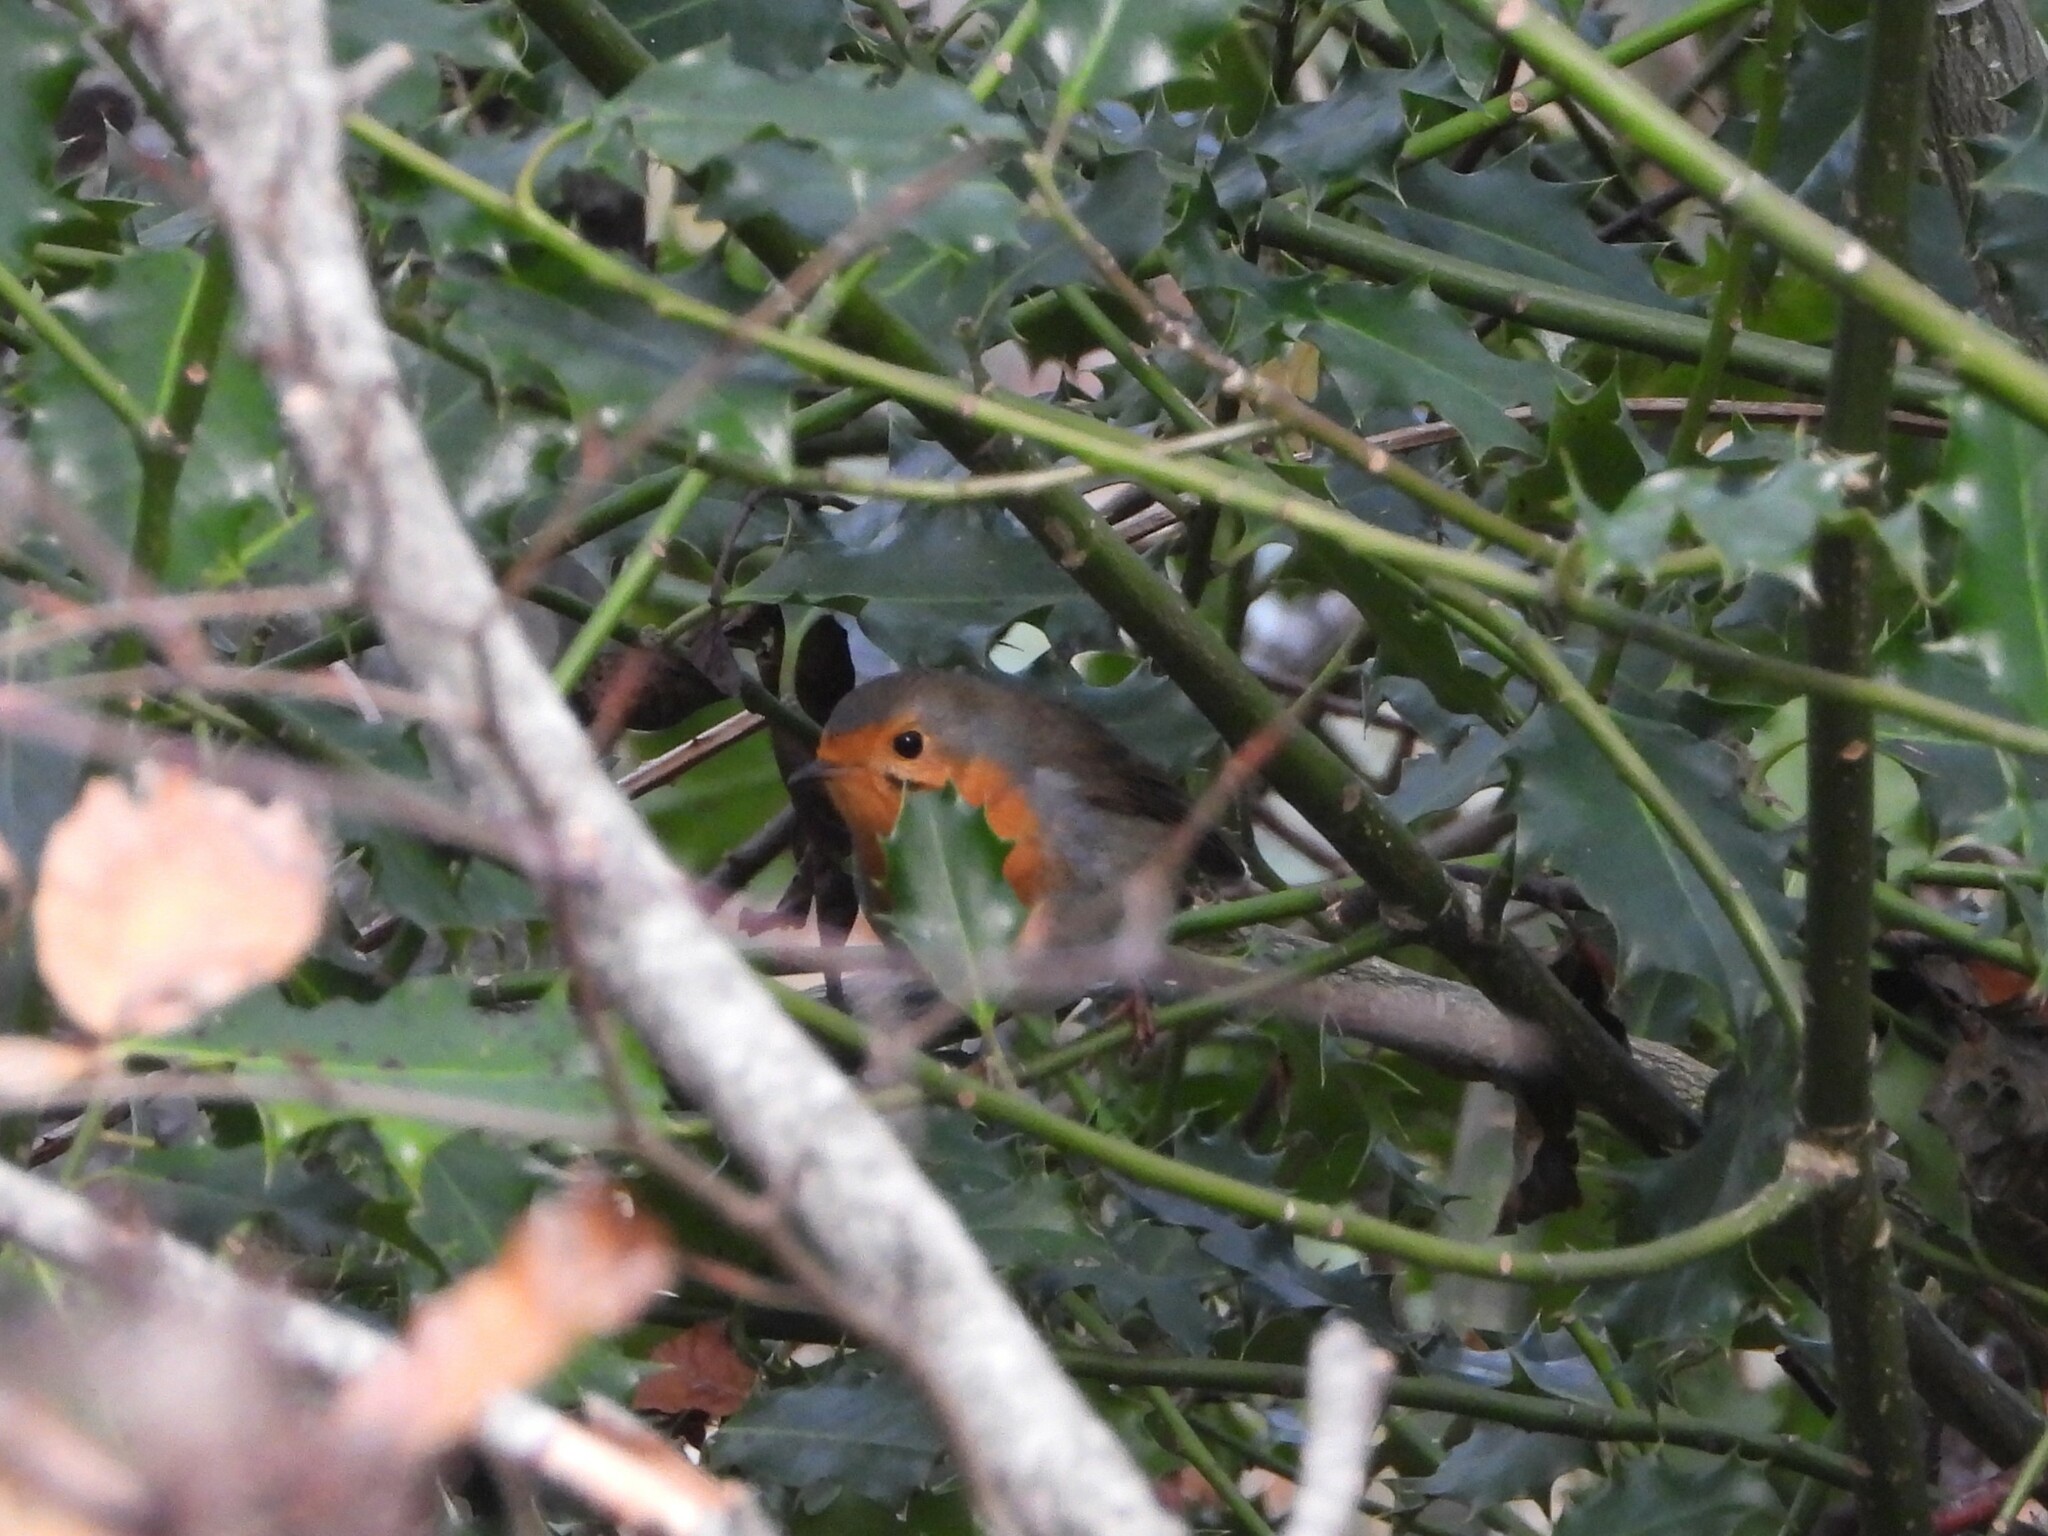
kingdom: Animalia
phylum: Chordata
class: Aves
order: Passeriformes
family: Muscicapidae
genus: Erithacus
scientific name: Erithacus rubecula
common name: European robin
